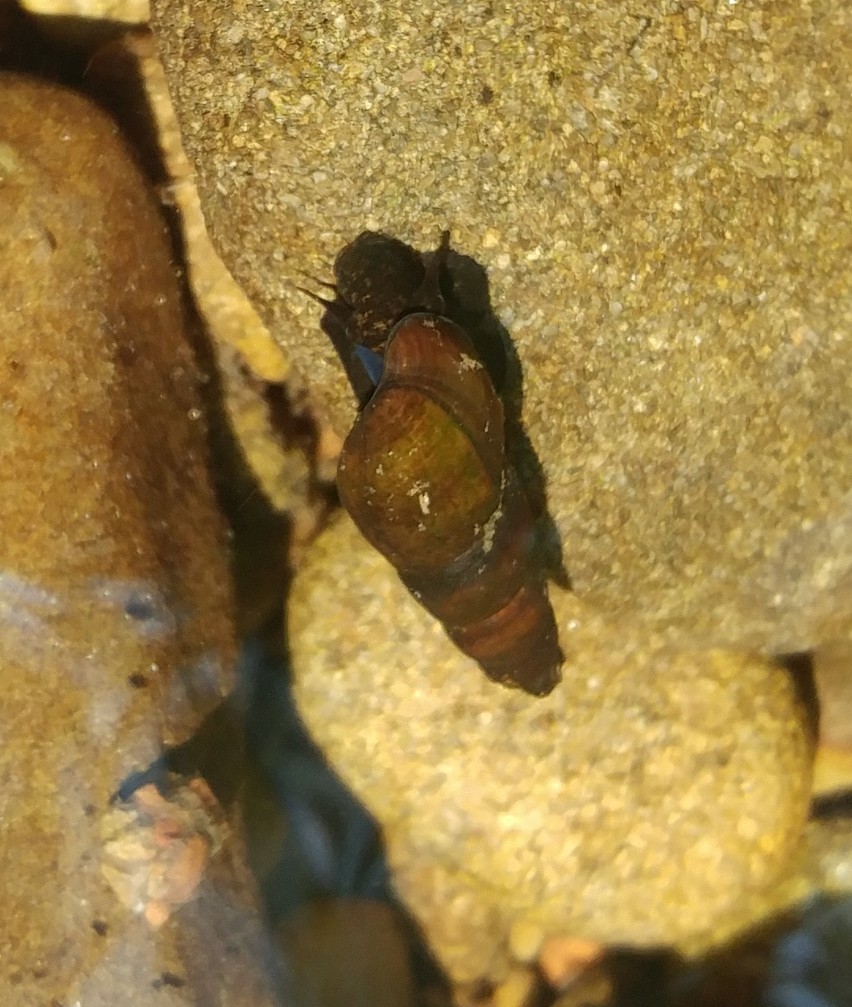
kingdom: Animalia
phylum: Mollusca
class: Gastropoda
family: Semisulcospiridae
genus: Juga
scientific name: Juga nigrina
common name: Black juga
